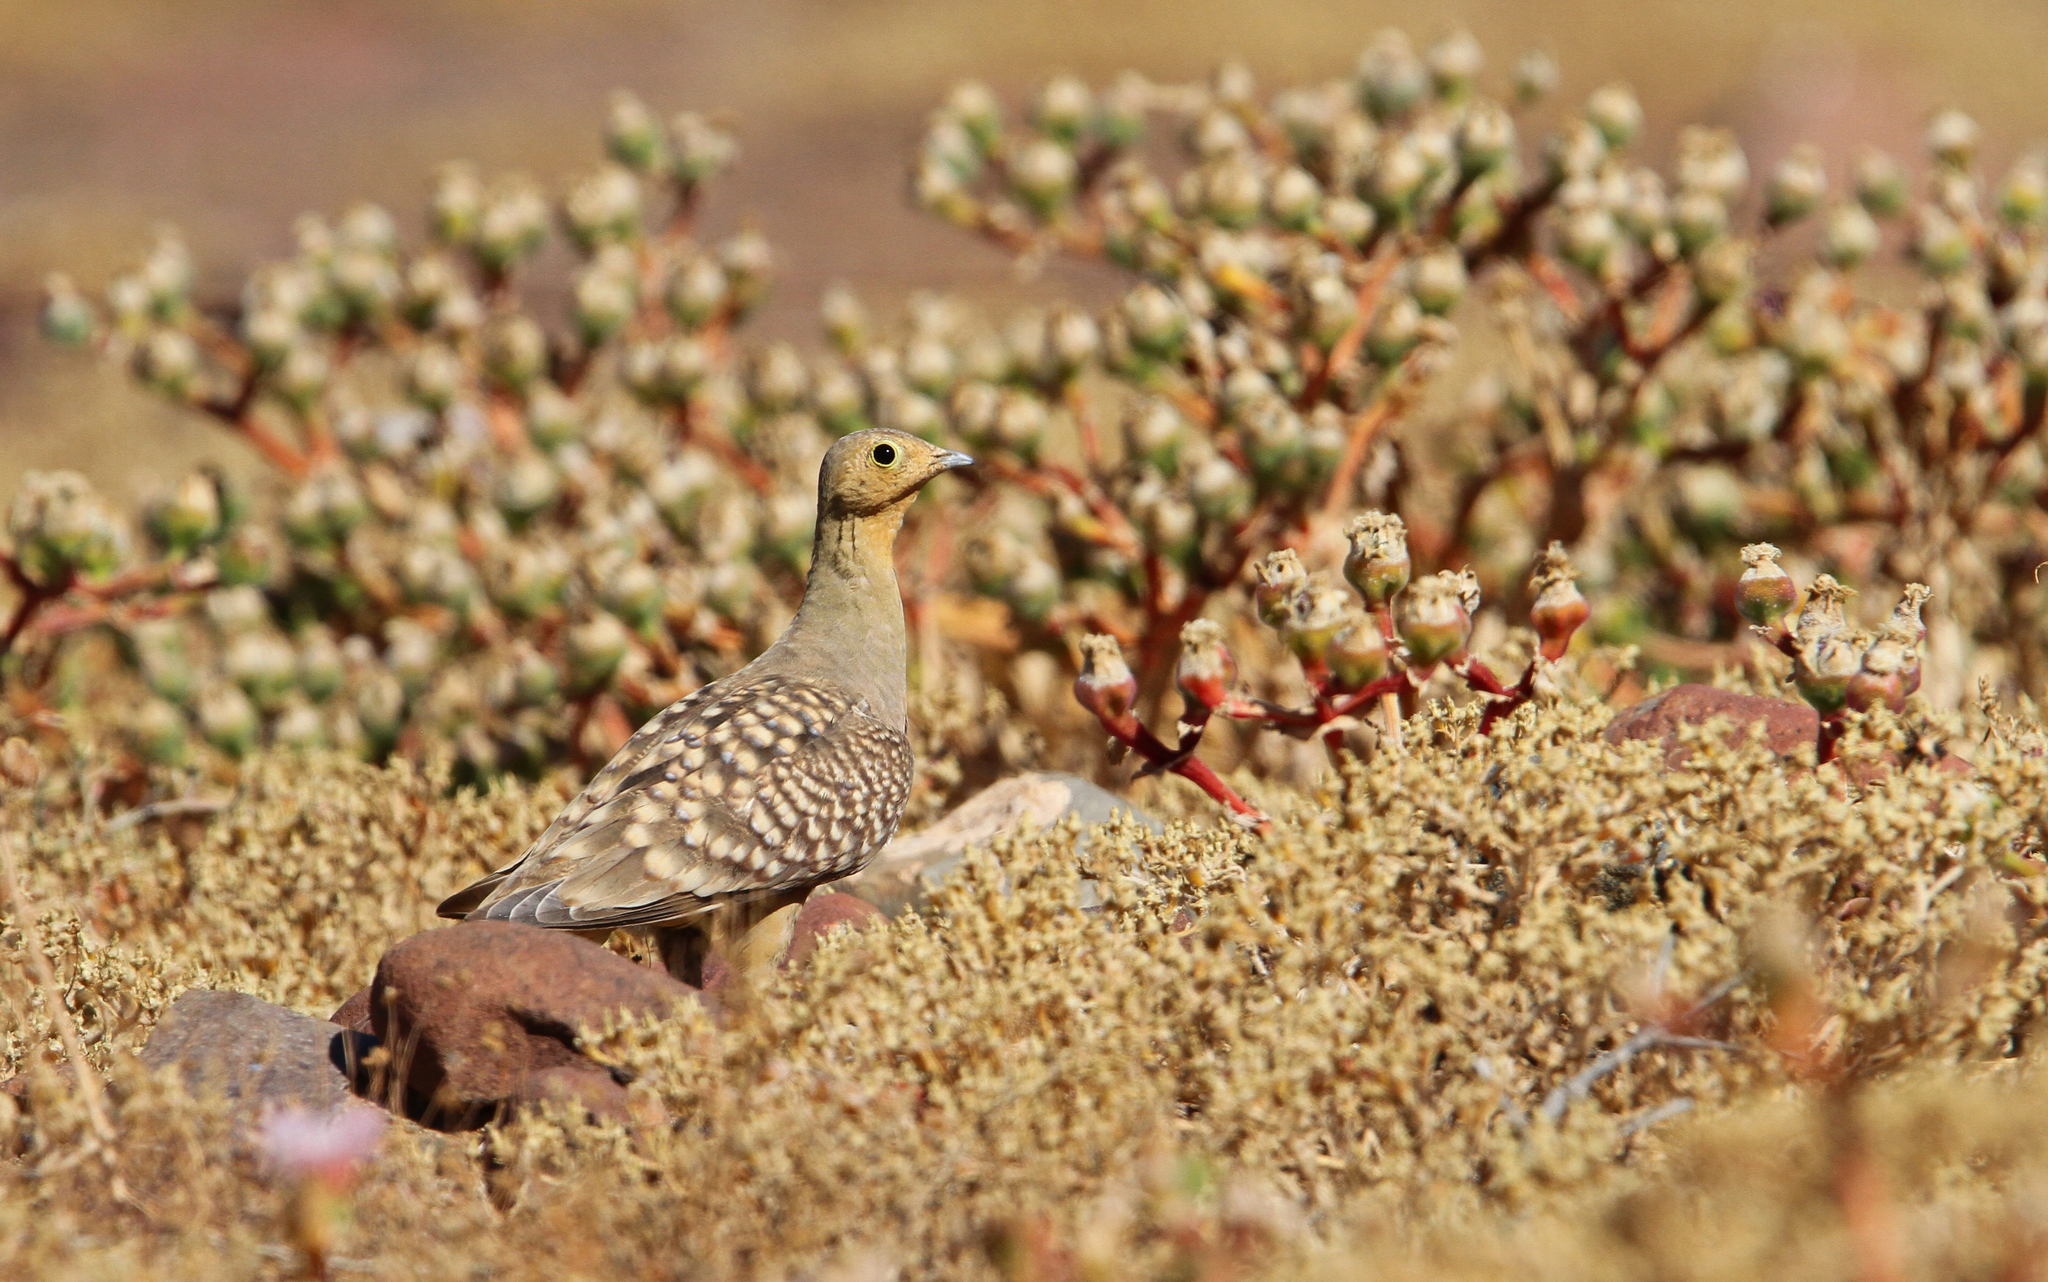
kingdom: Animalia
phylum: Chordata
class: Aves
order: Pteroclidiformes
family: Pteroclididae
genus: Pterocles
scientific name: Pterocles namaqua
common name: Namaqua sandgrouse
